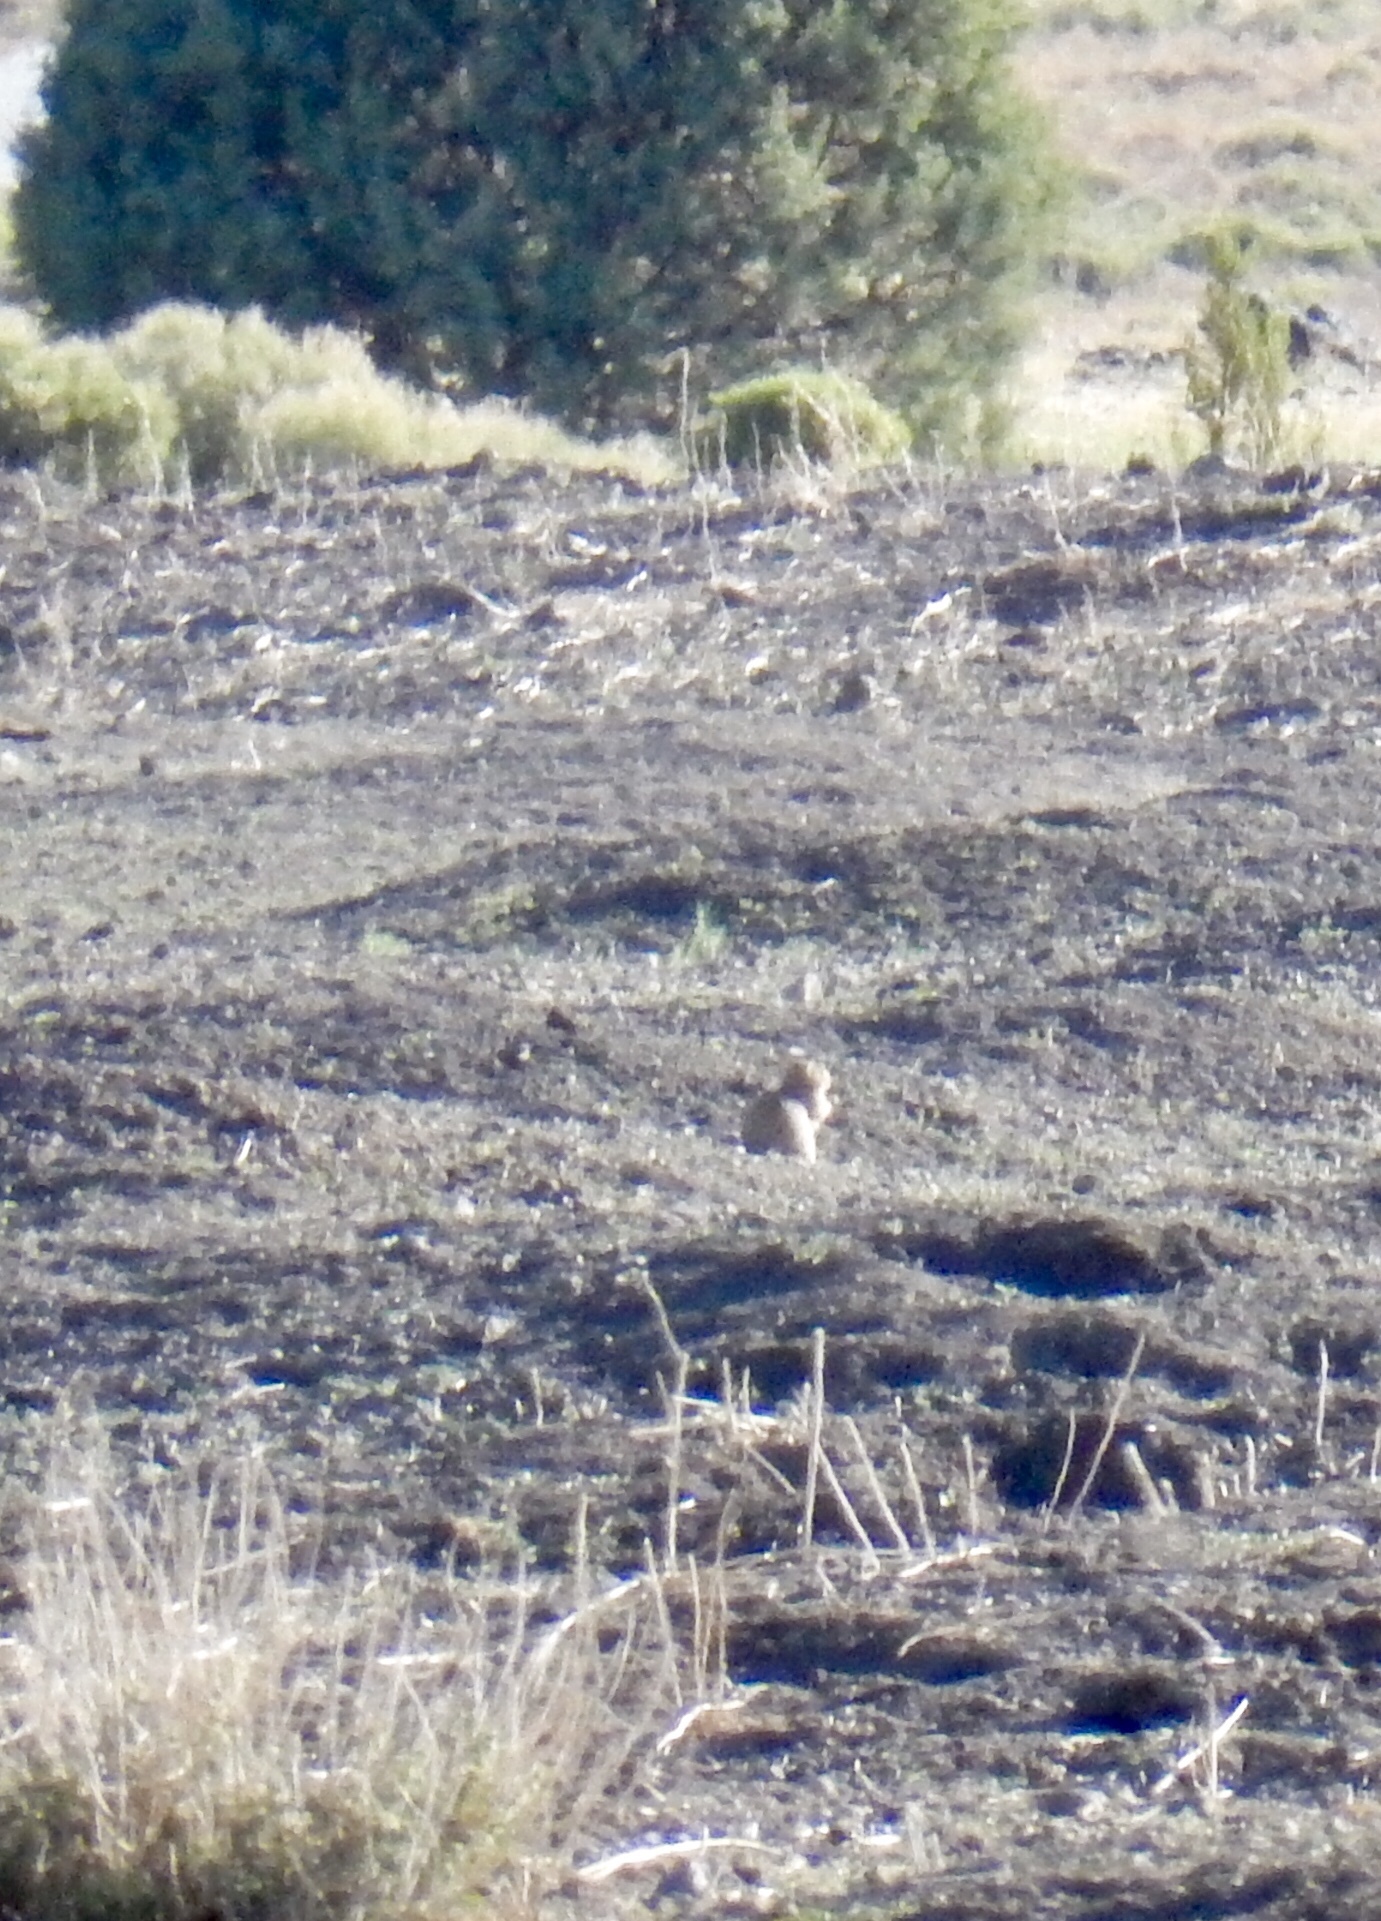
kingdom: Animalia
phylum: Chordata
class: Mammalia
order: Rodentia
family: Sciuridae
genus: Cynomys
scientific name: Cynomys gunnisoni
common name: Gunnison's prairie dog
